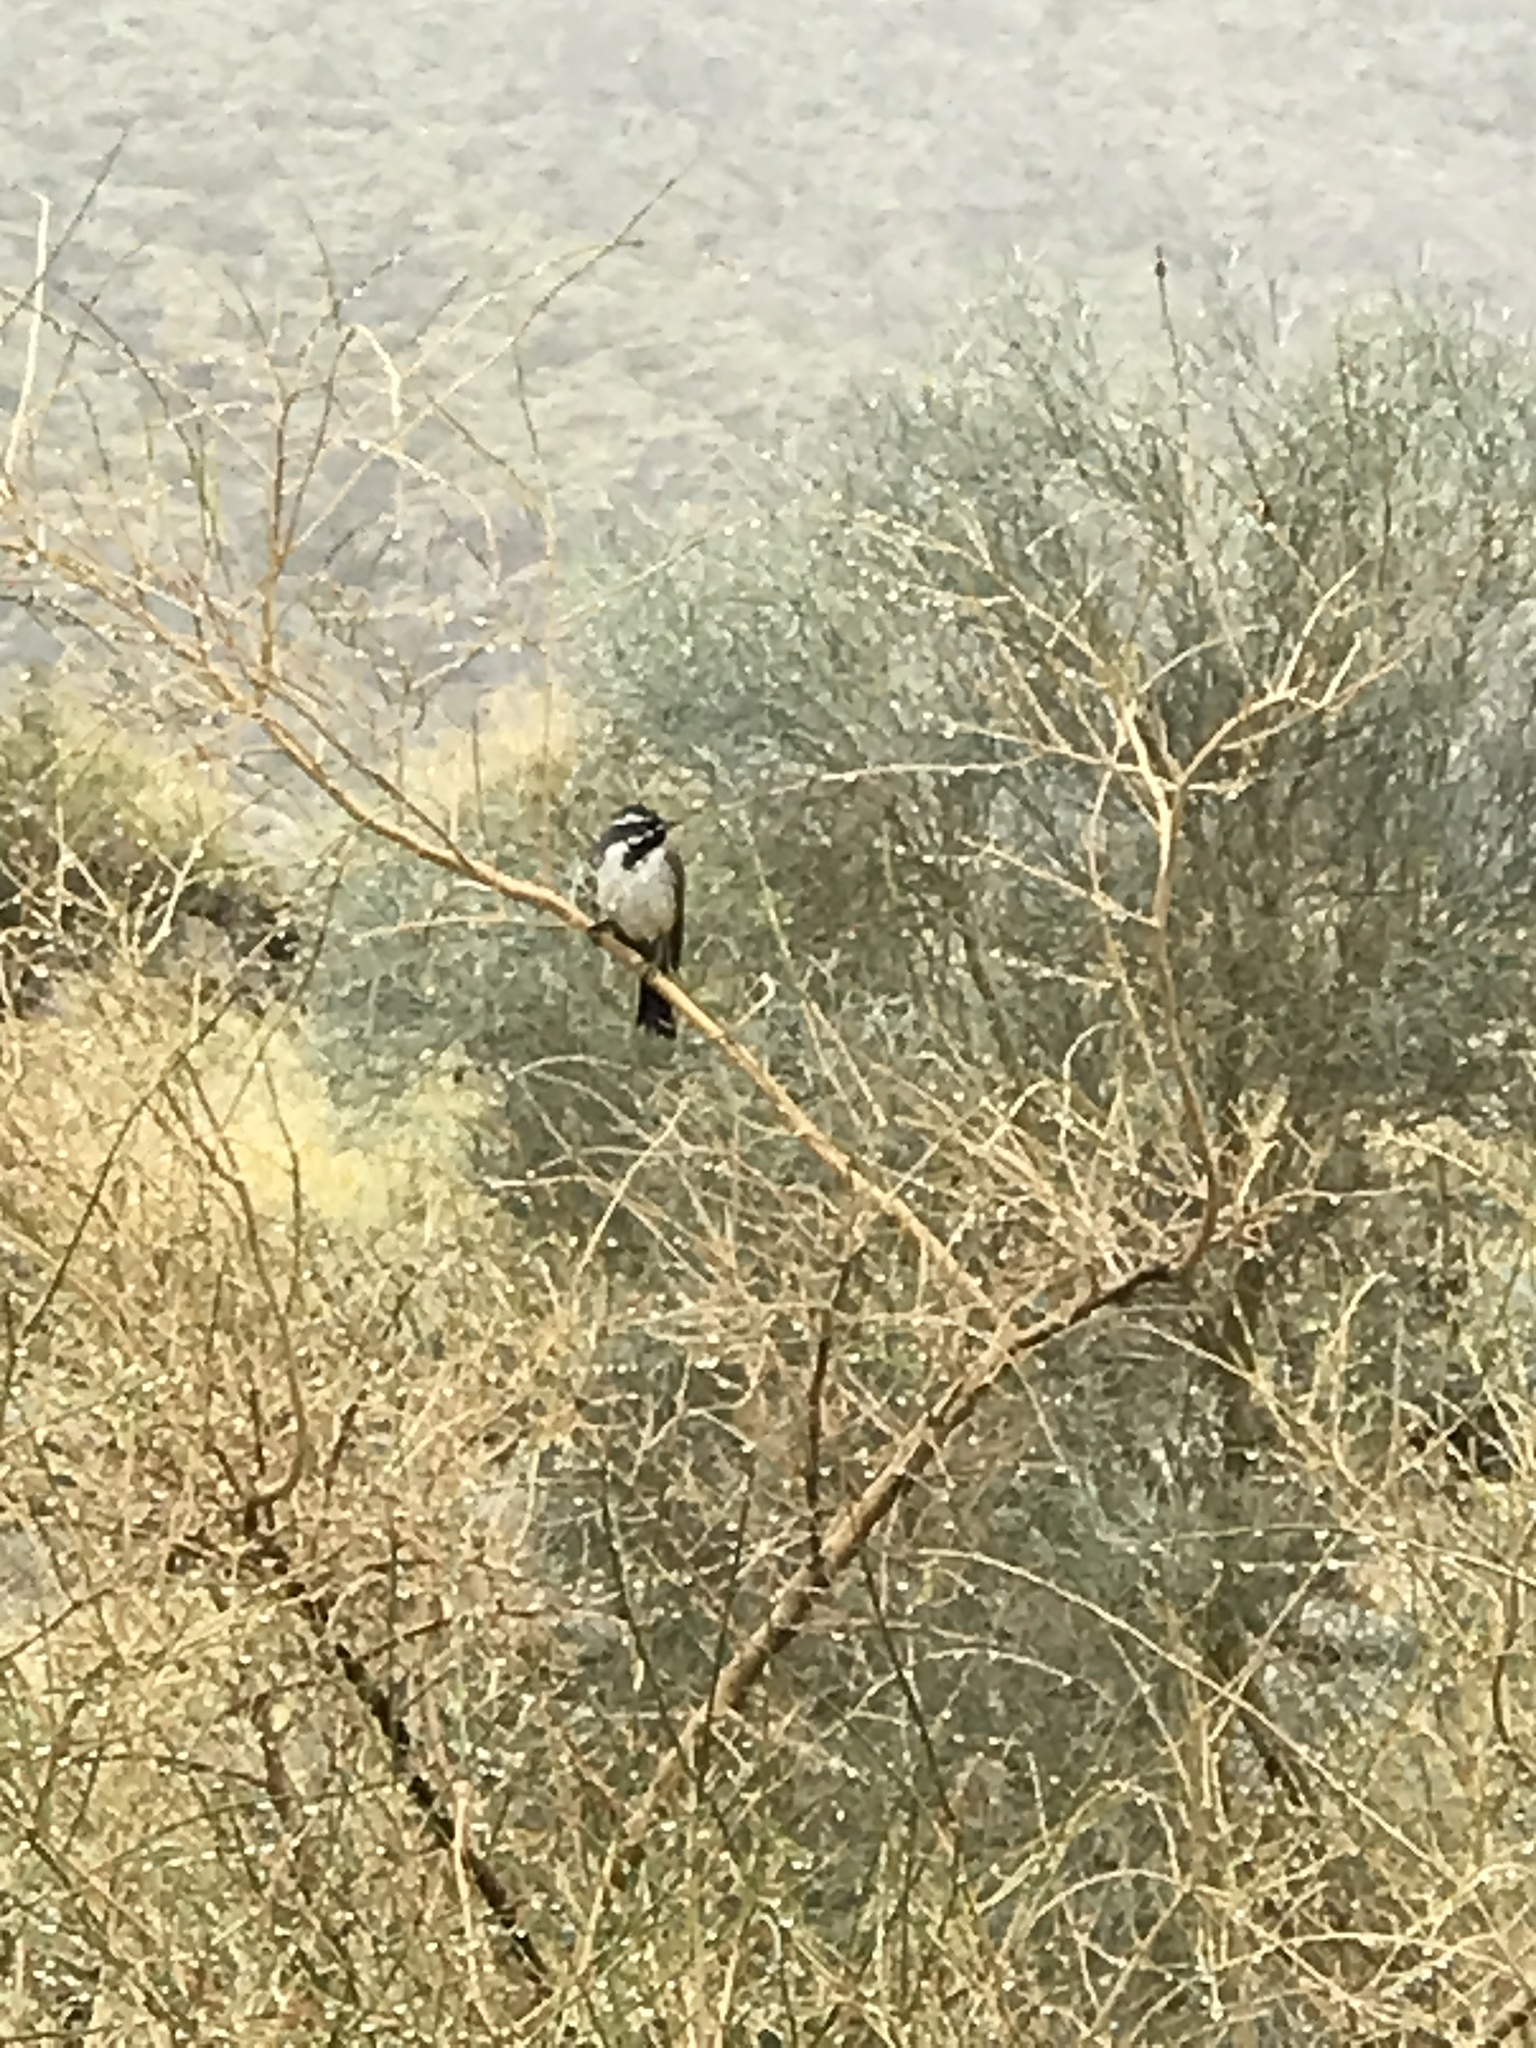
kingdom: Animalia
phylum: Chordata
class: Aves
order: Passeriformes
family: Passerellidae
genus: Amphispiza
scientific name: Amphispiza bilineata
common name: Black-throated sparrow
